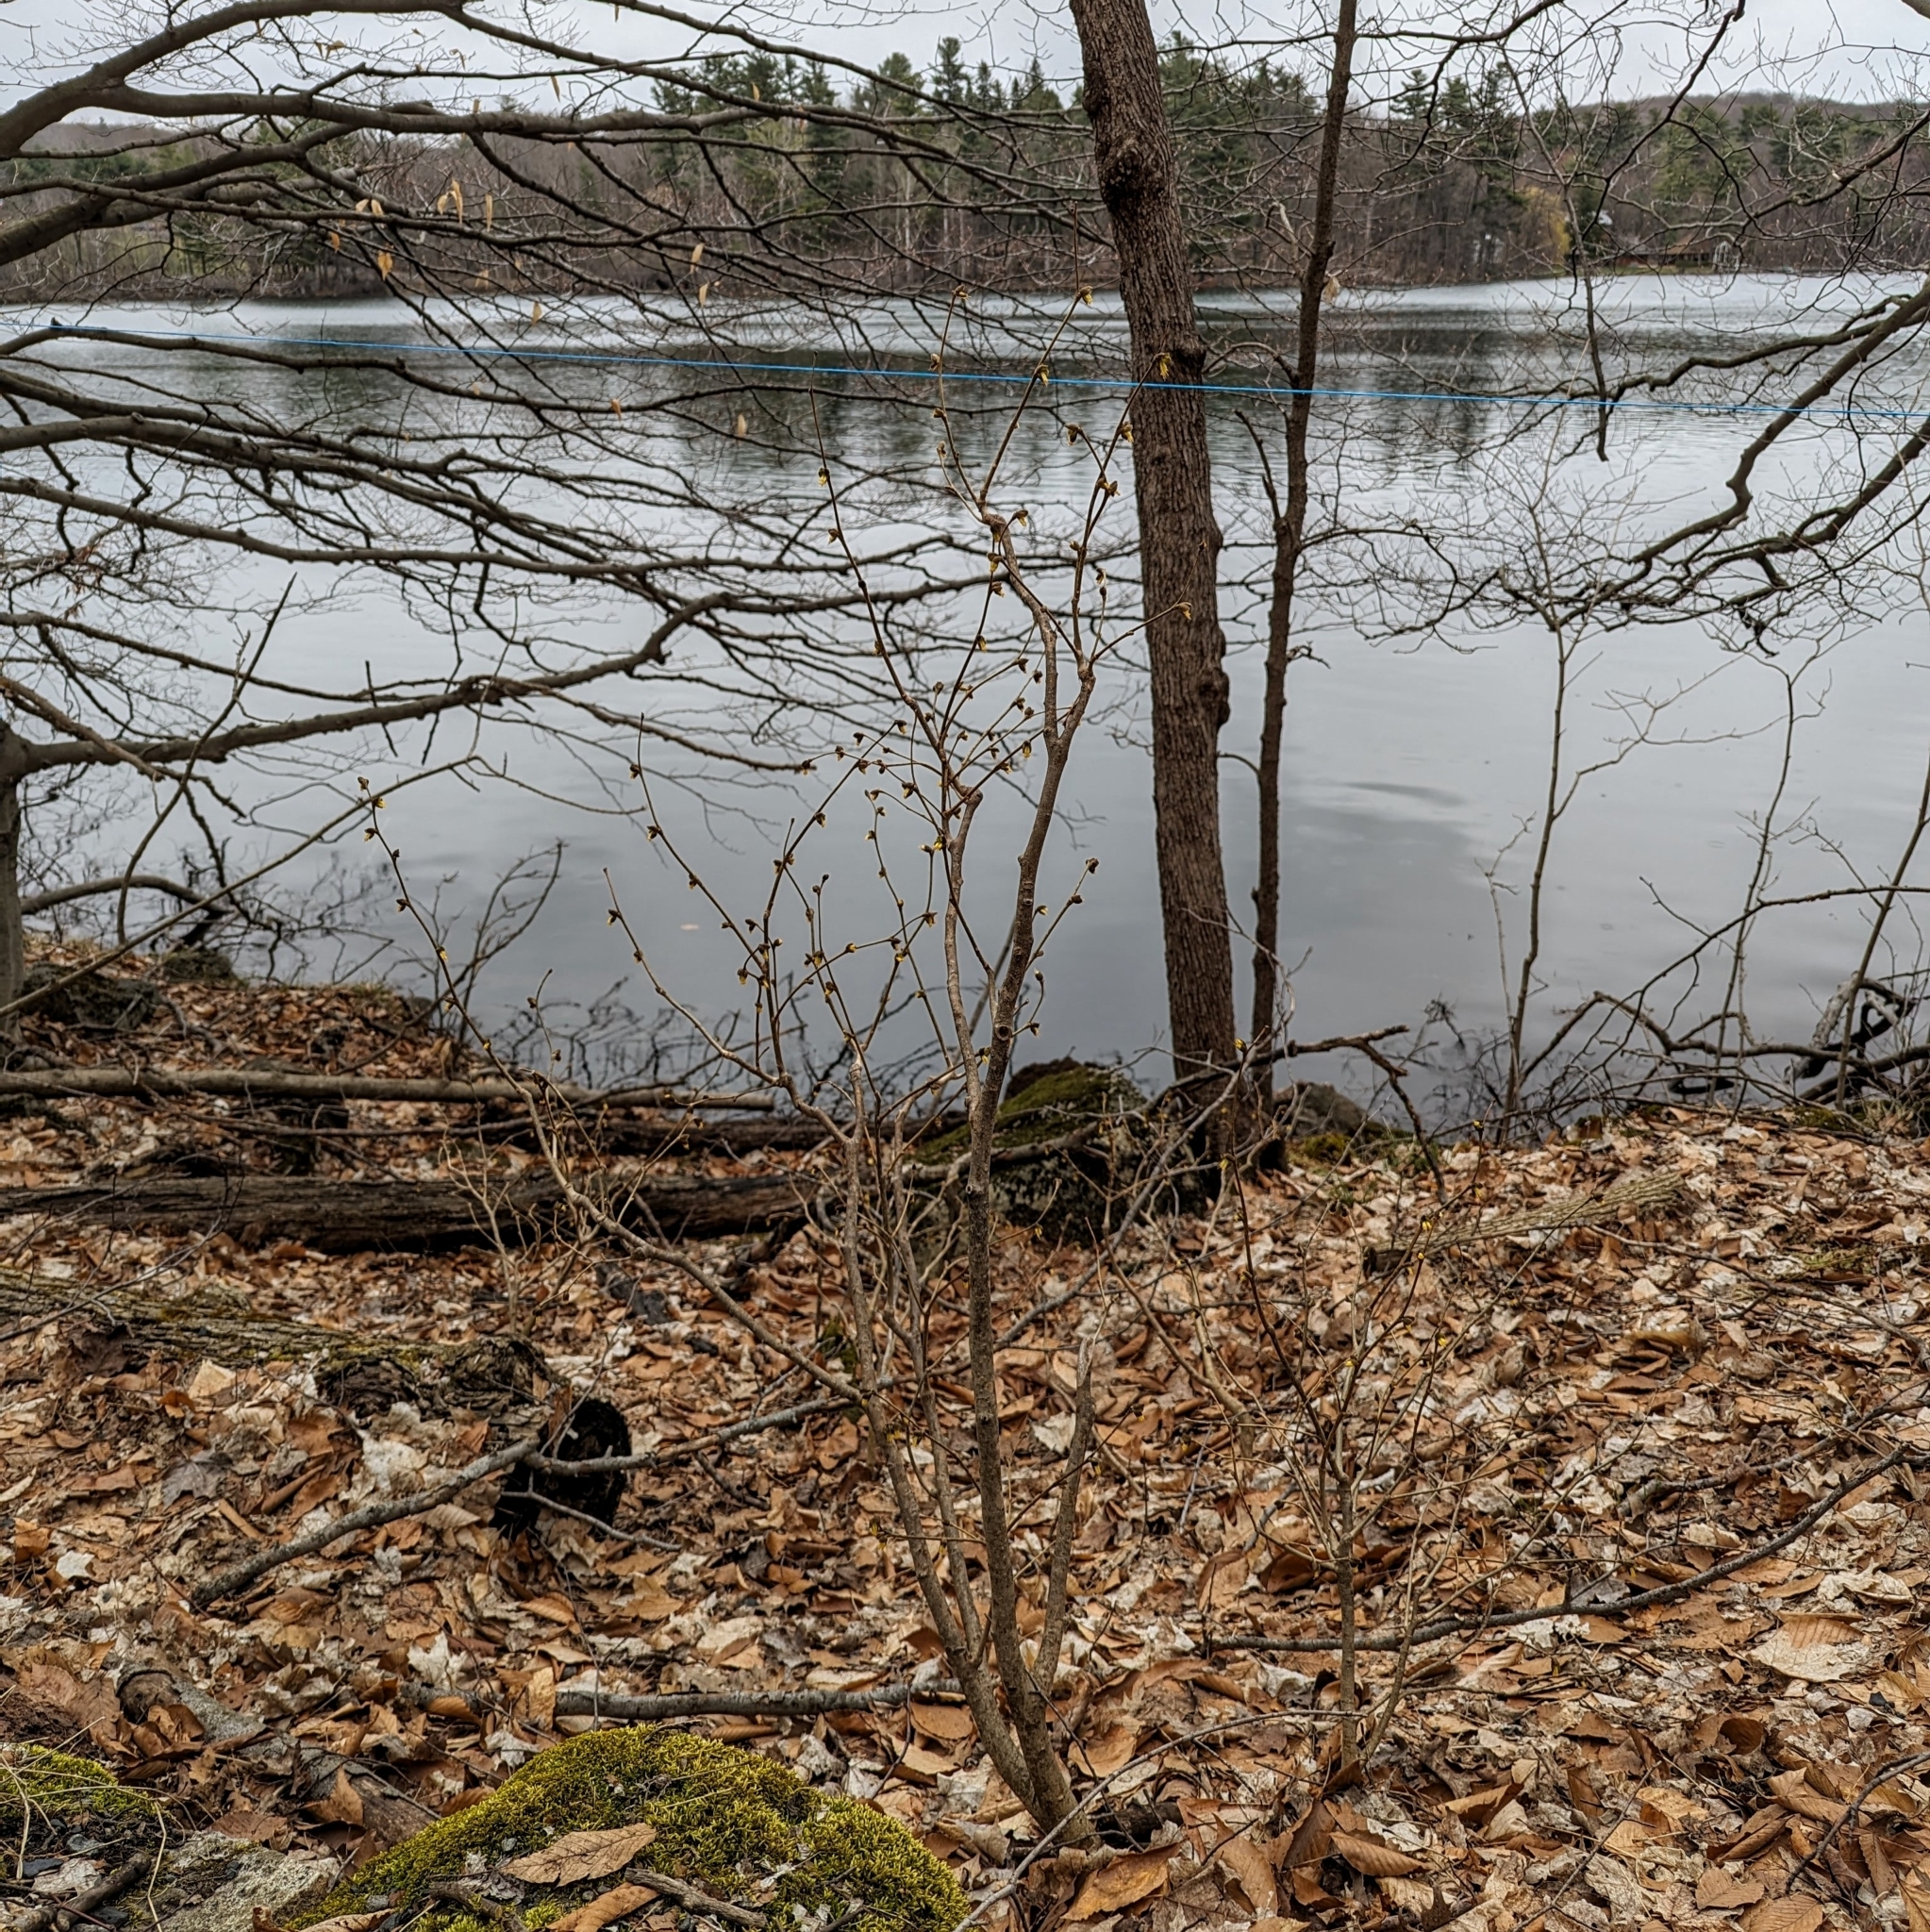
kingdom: Plantae
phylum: Tracheophyta
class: Magnoliopsida
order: Malvales
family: Thymelaeaceae
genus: Dirca
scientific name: Dirca palustris
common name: Leatherwood
